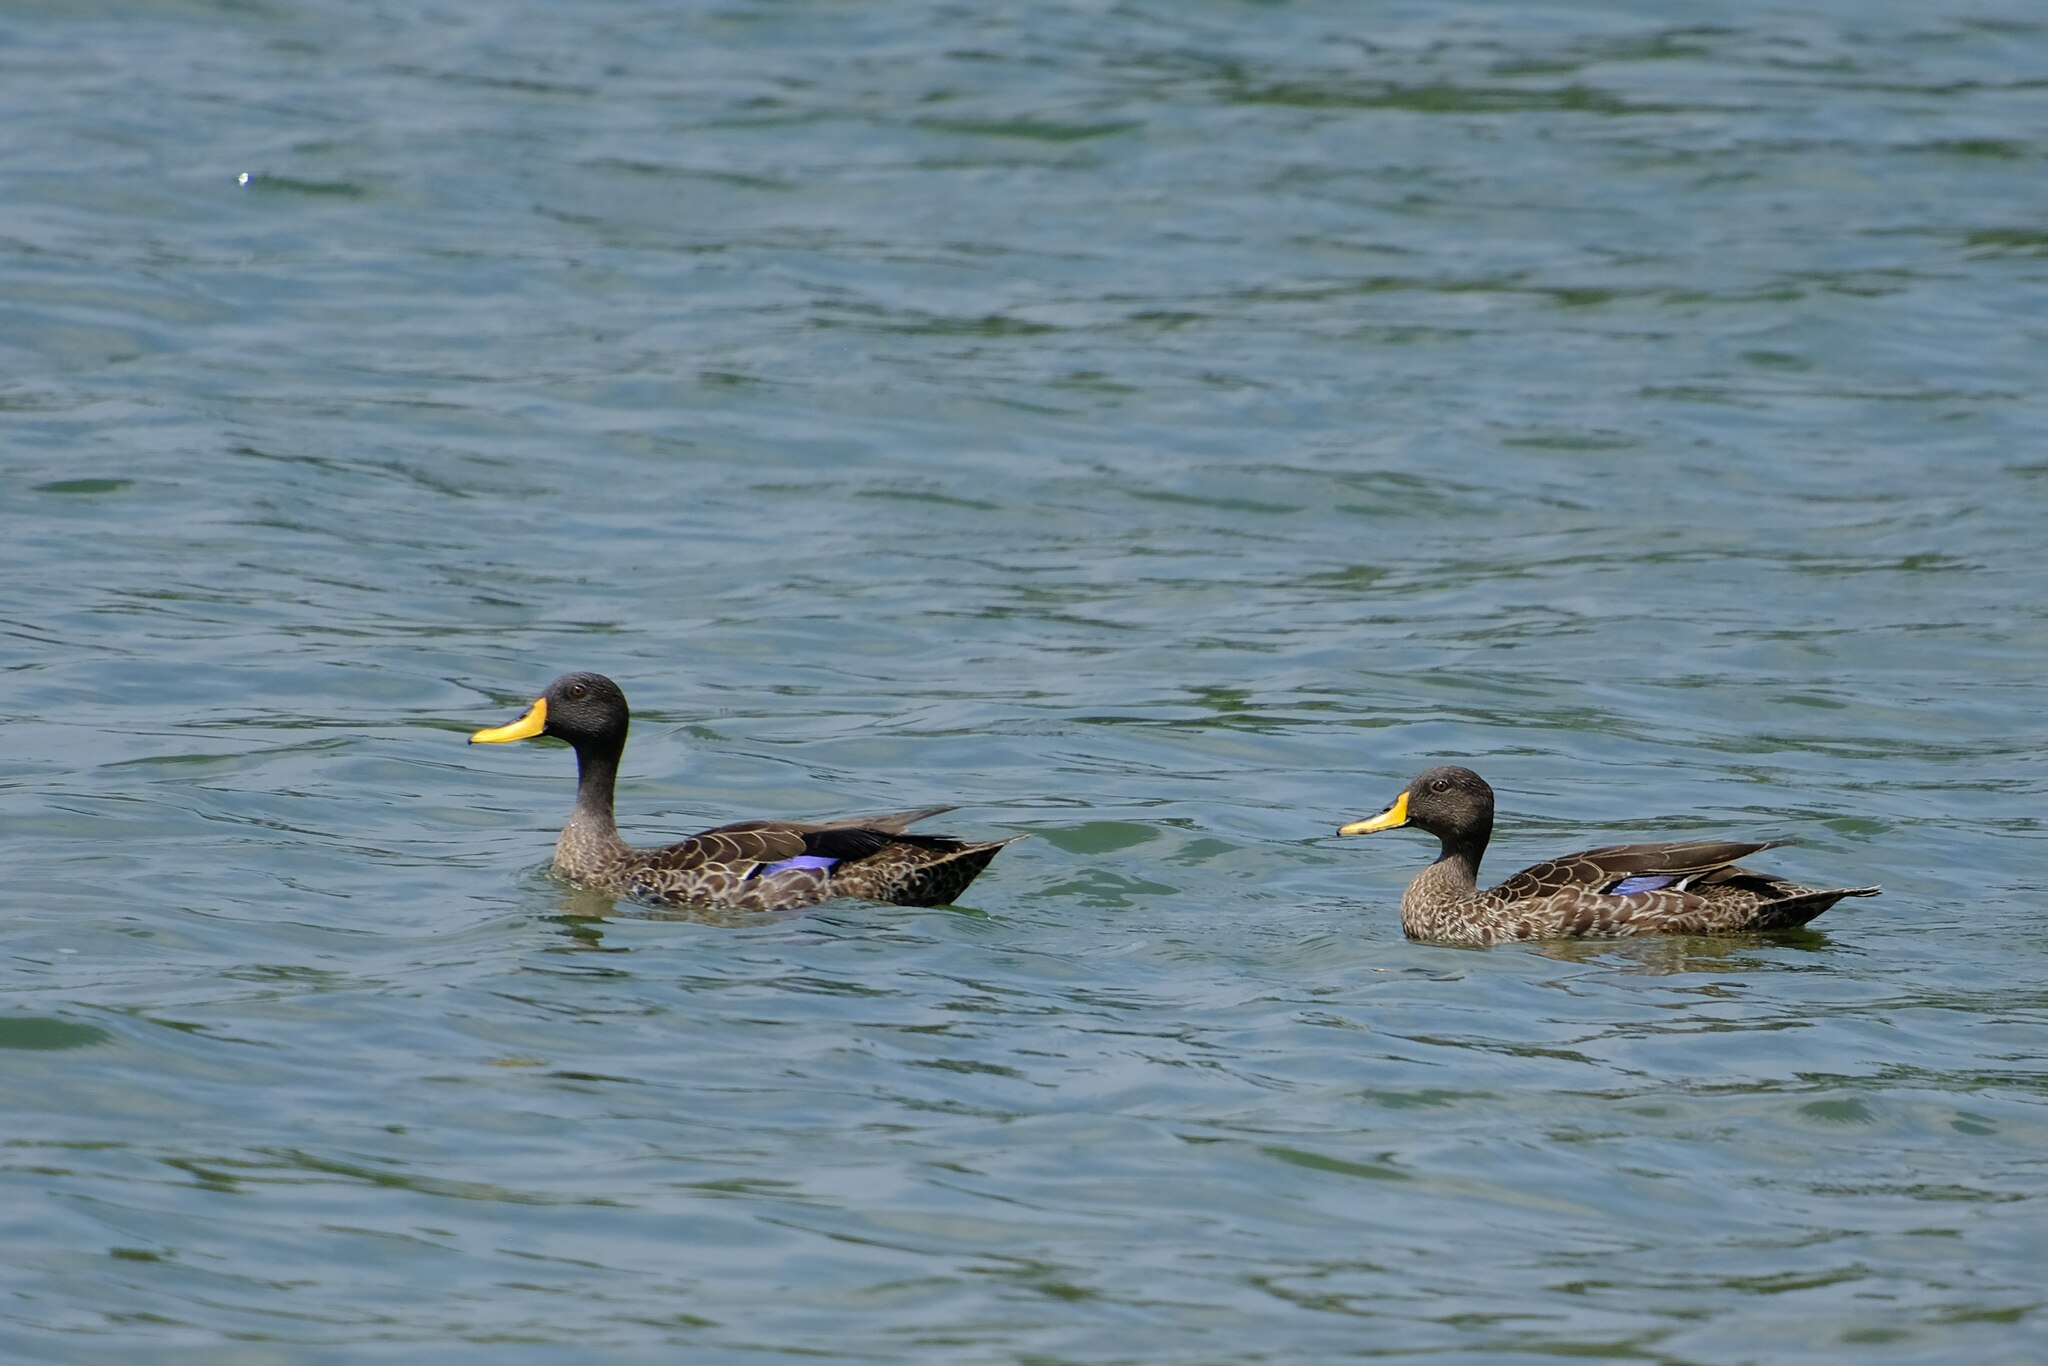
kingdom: Animalia
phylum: Chordata
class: Aves
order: Anseriformes
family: Anatidae
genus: Anas
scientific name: Anas undulata
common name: Yellow-billed duck
